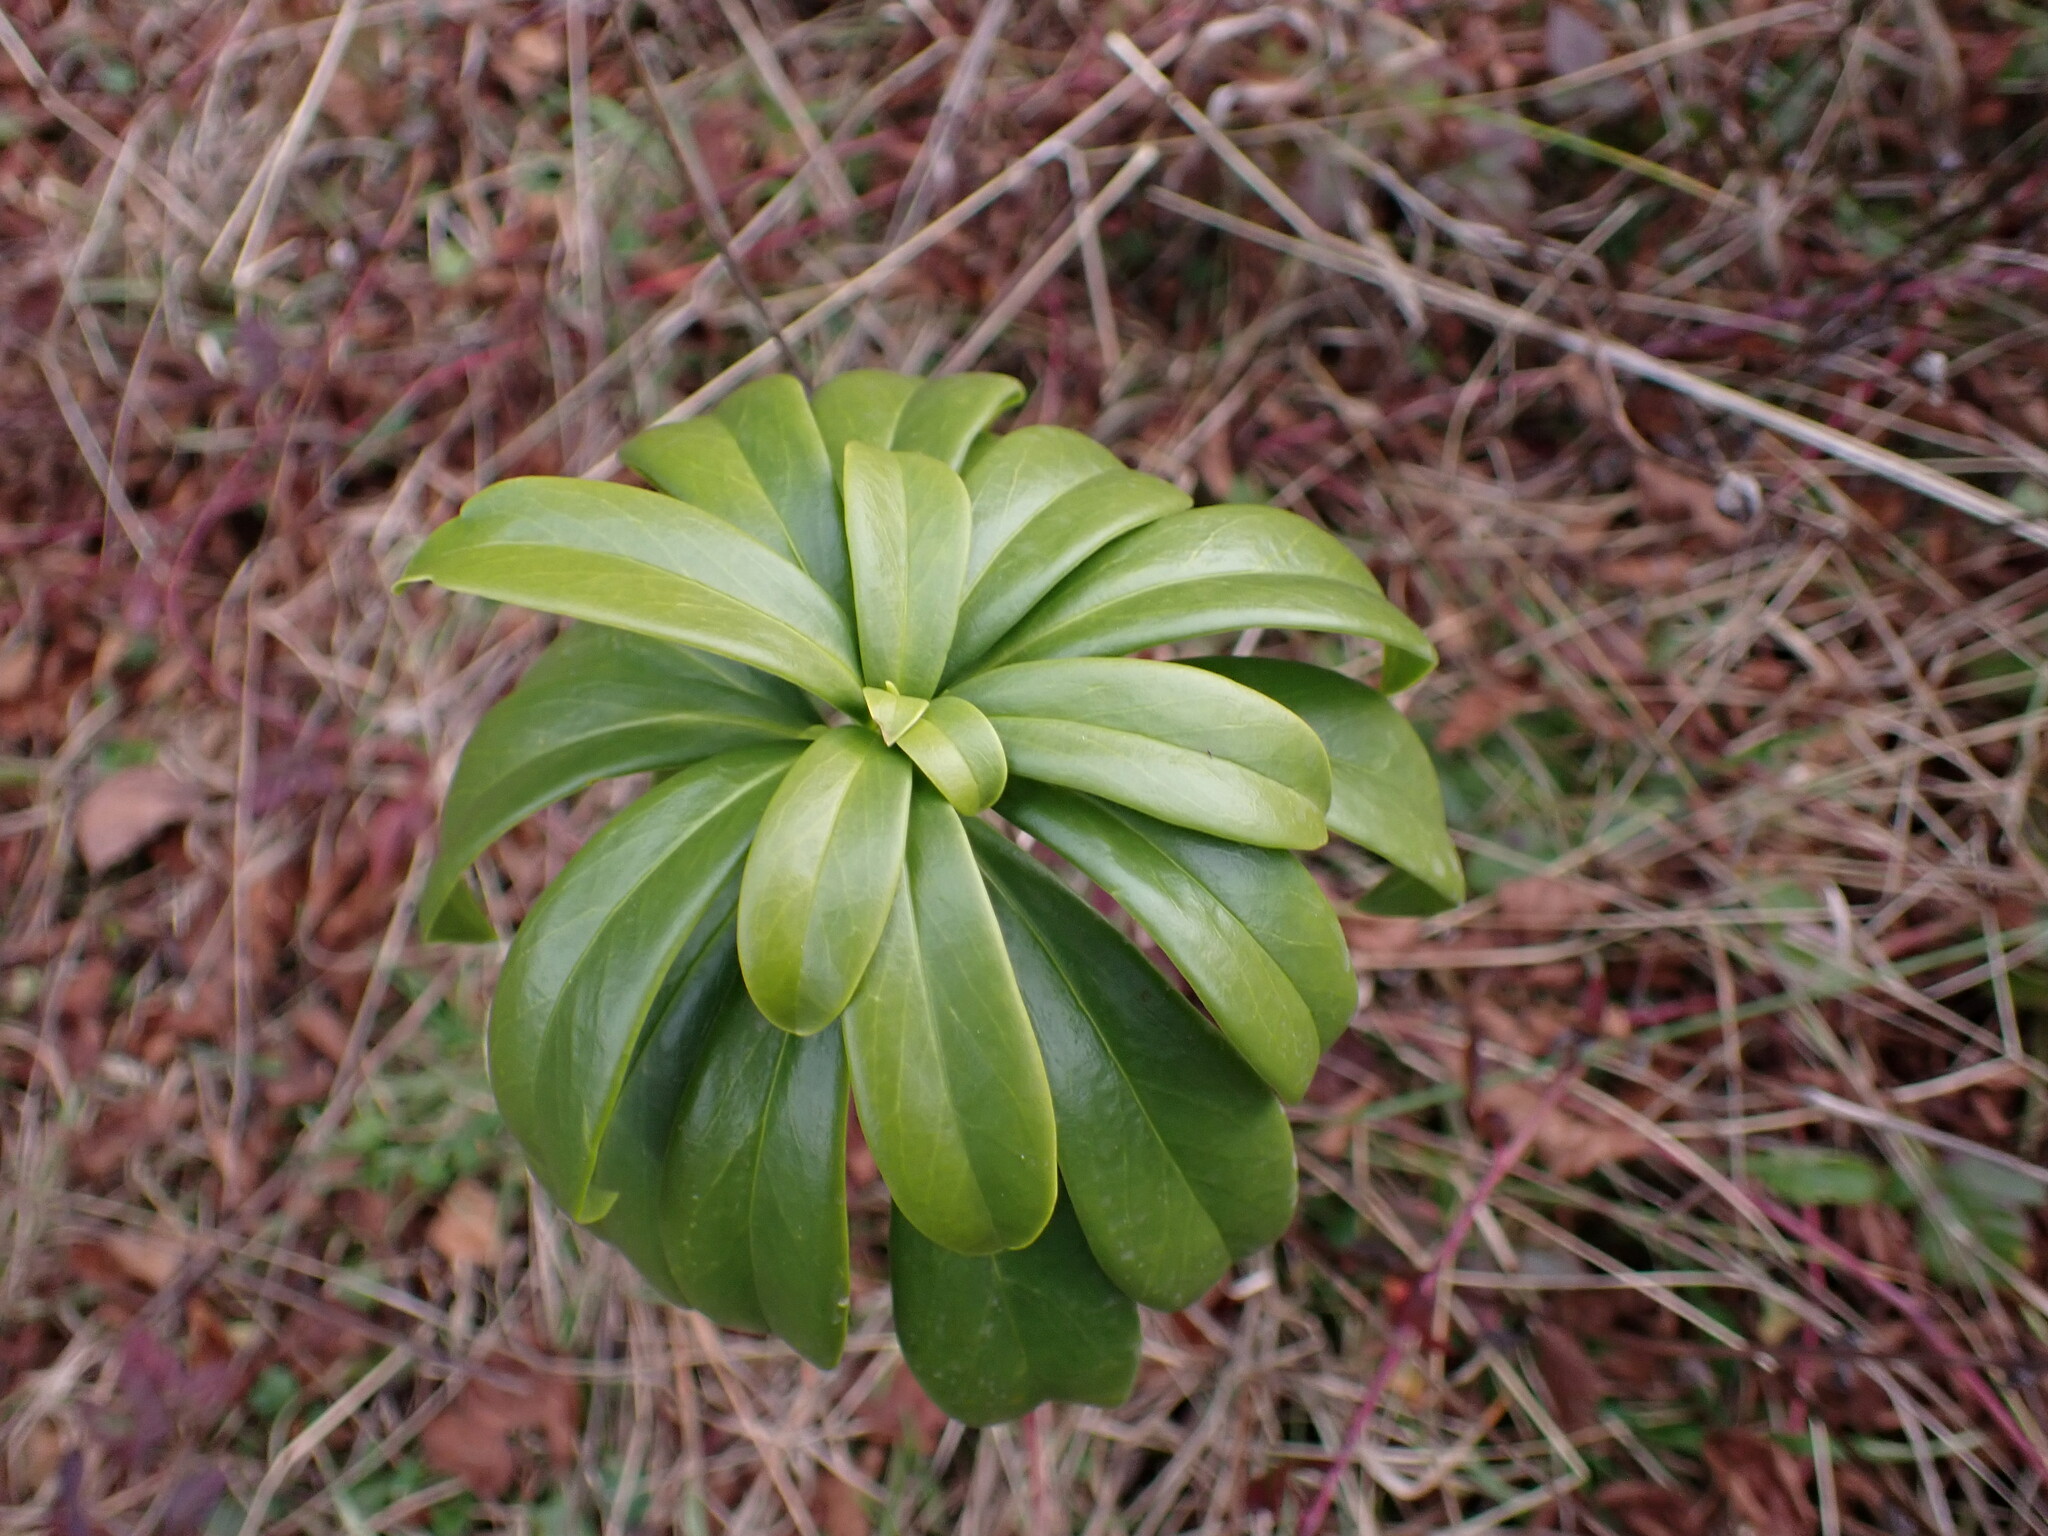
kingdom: Plantae
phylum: Tracheophyta
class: Magnoliopsida
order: Malvales
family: Thymelaeaceae
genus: Daphne
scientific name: Daphne laureola
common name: Spurge-laurel
